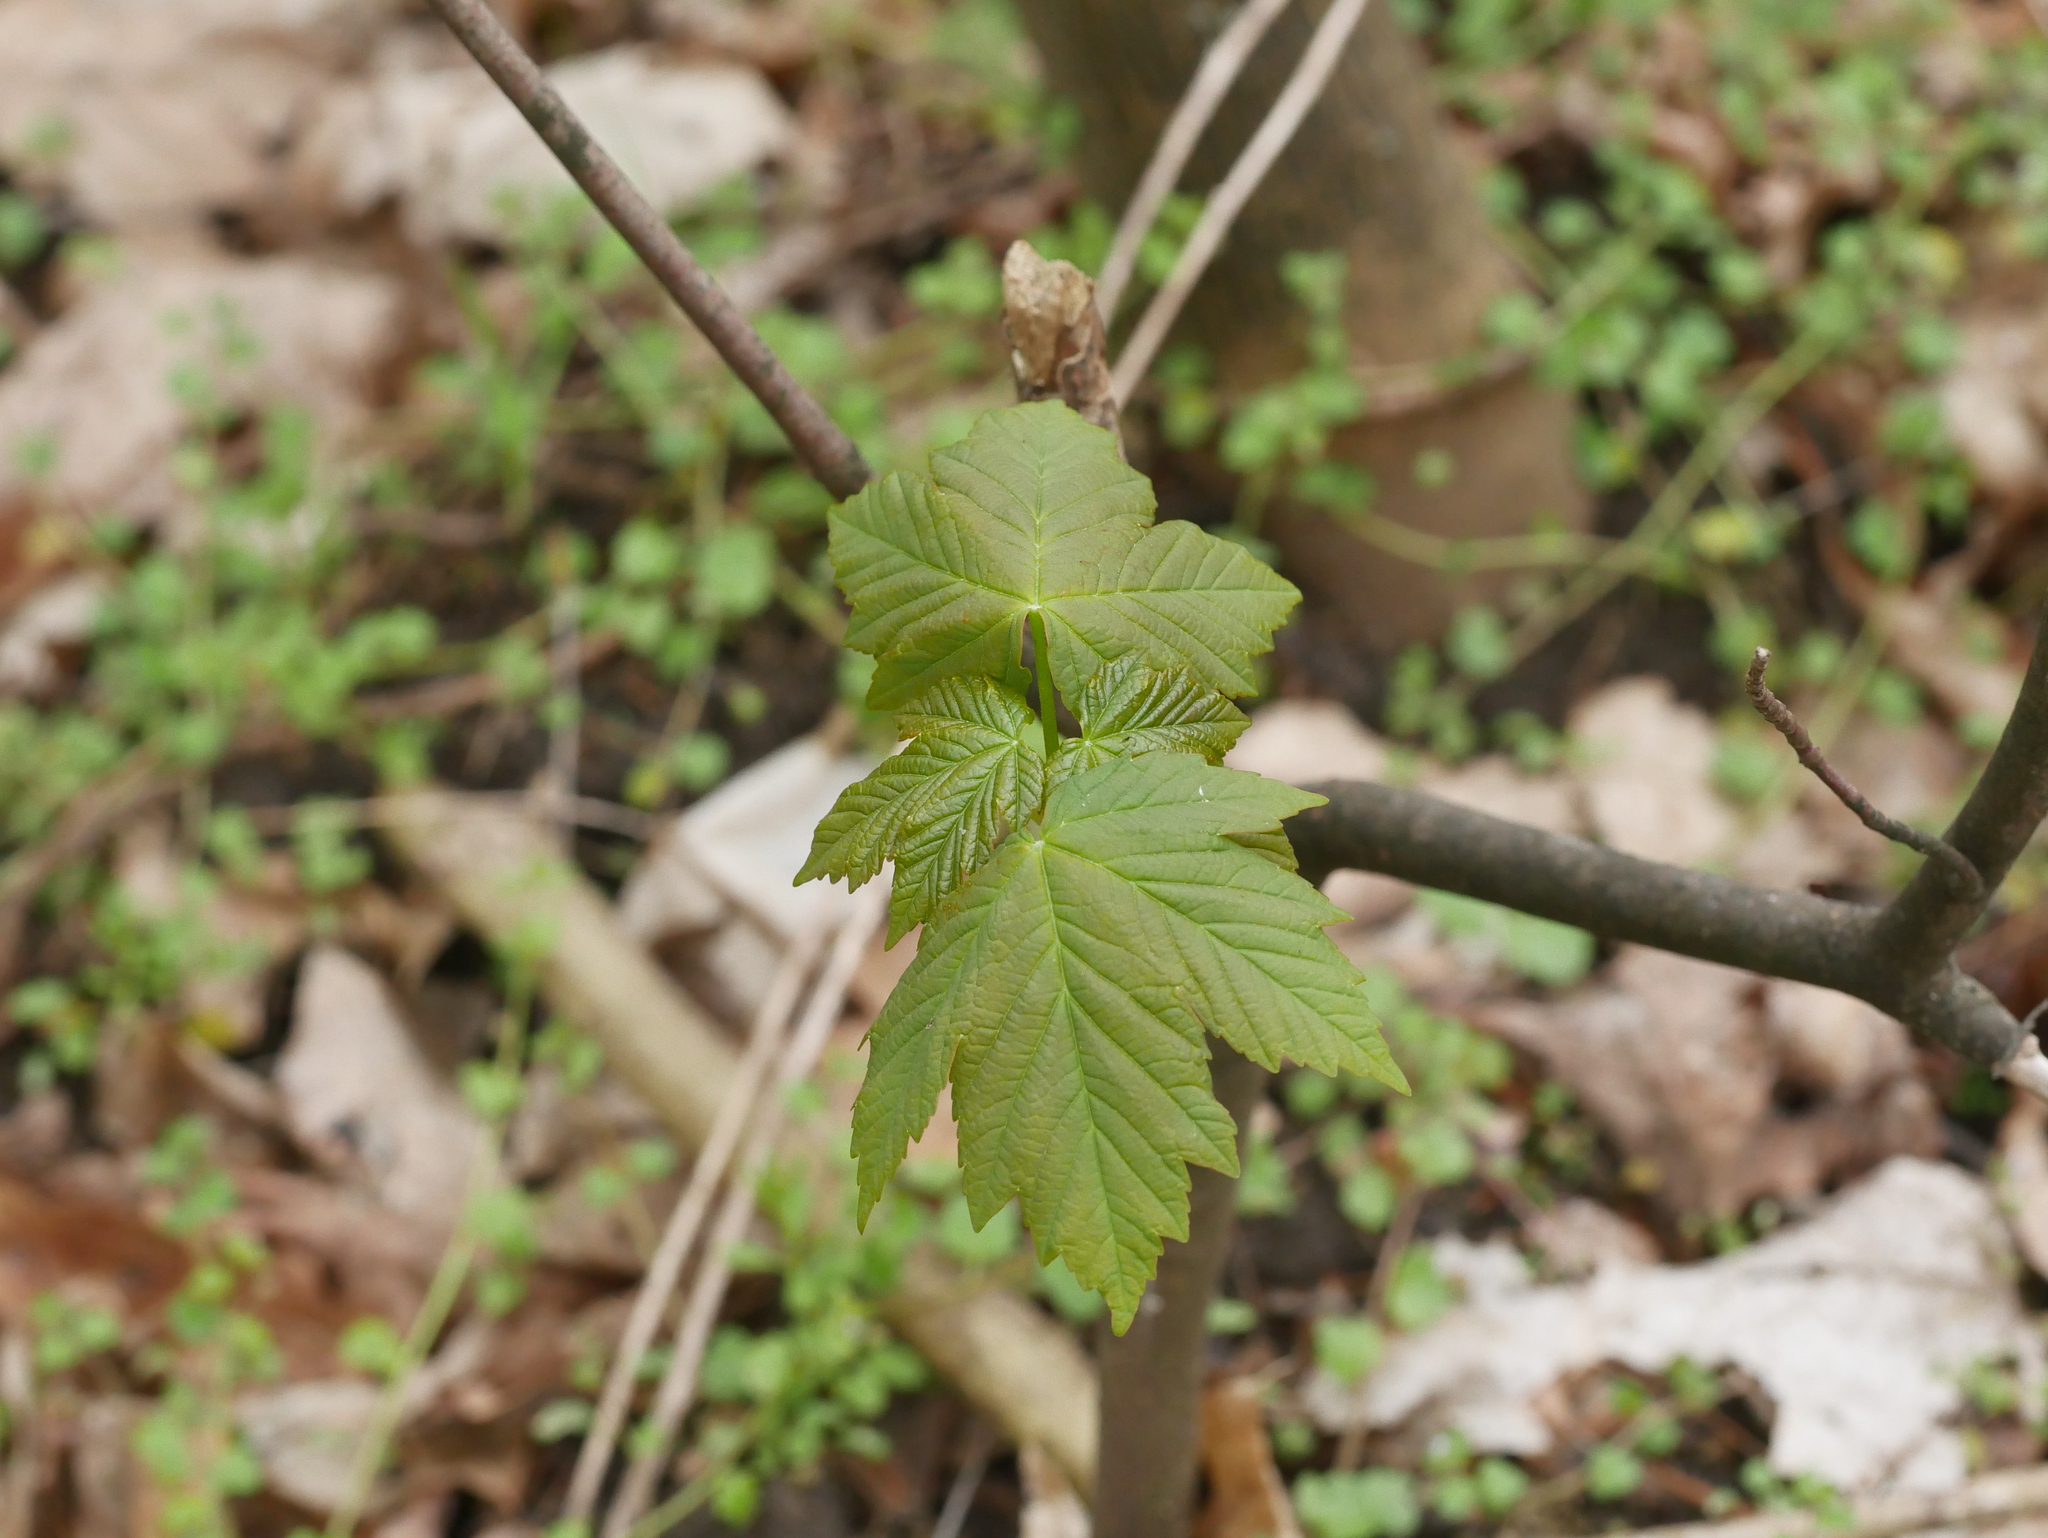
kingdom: Plantae
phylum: Tracheophyta
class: Magnoliopsida
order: Sapindales
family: Sapindaceae
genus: Acer
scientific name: Acer pseudoplatanus
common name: Sycamore
